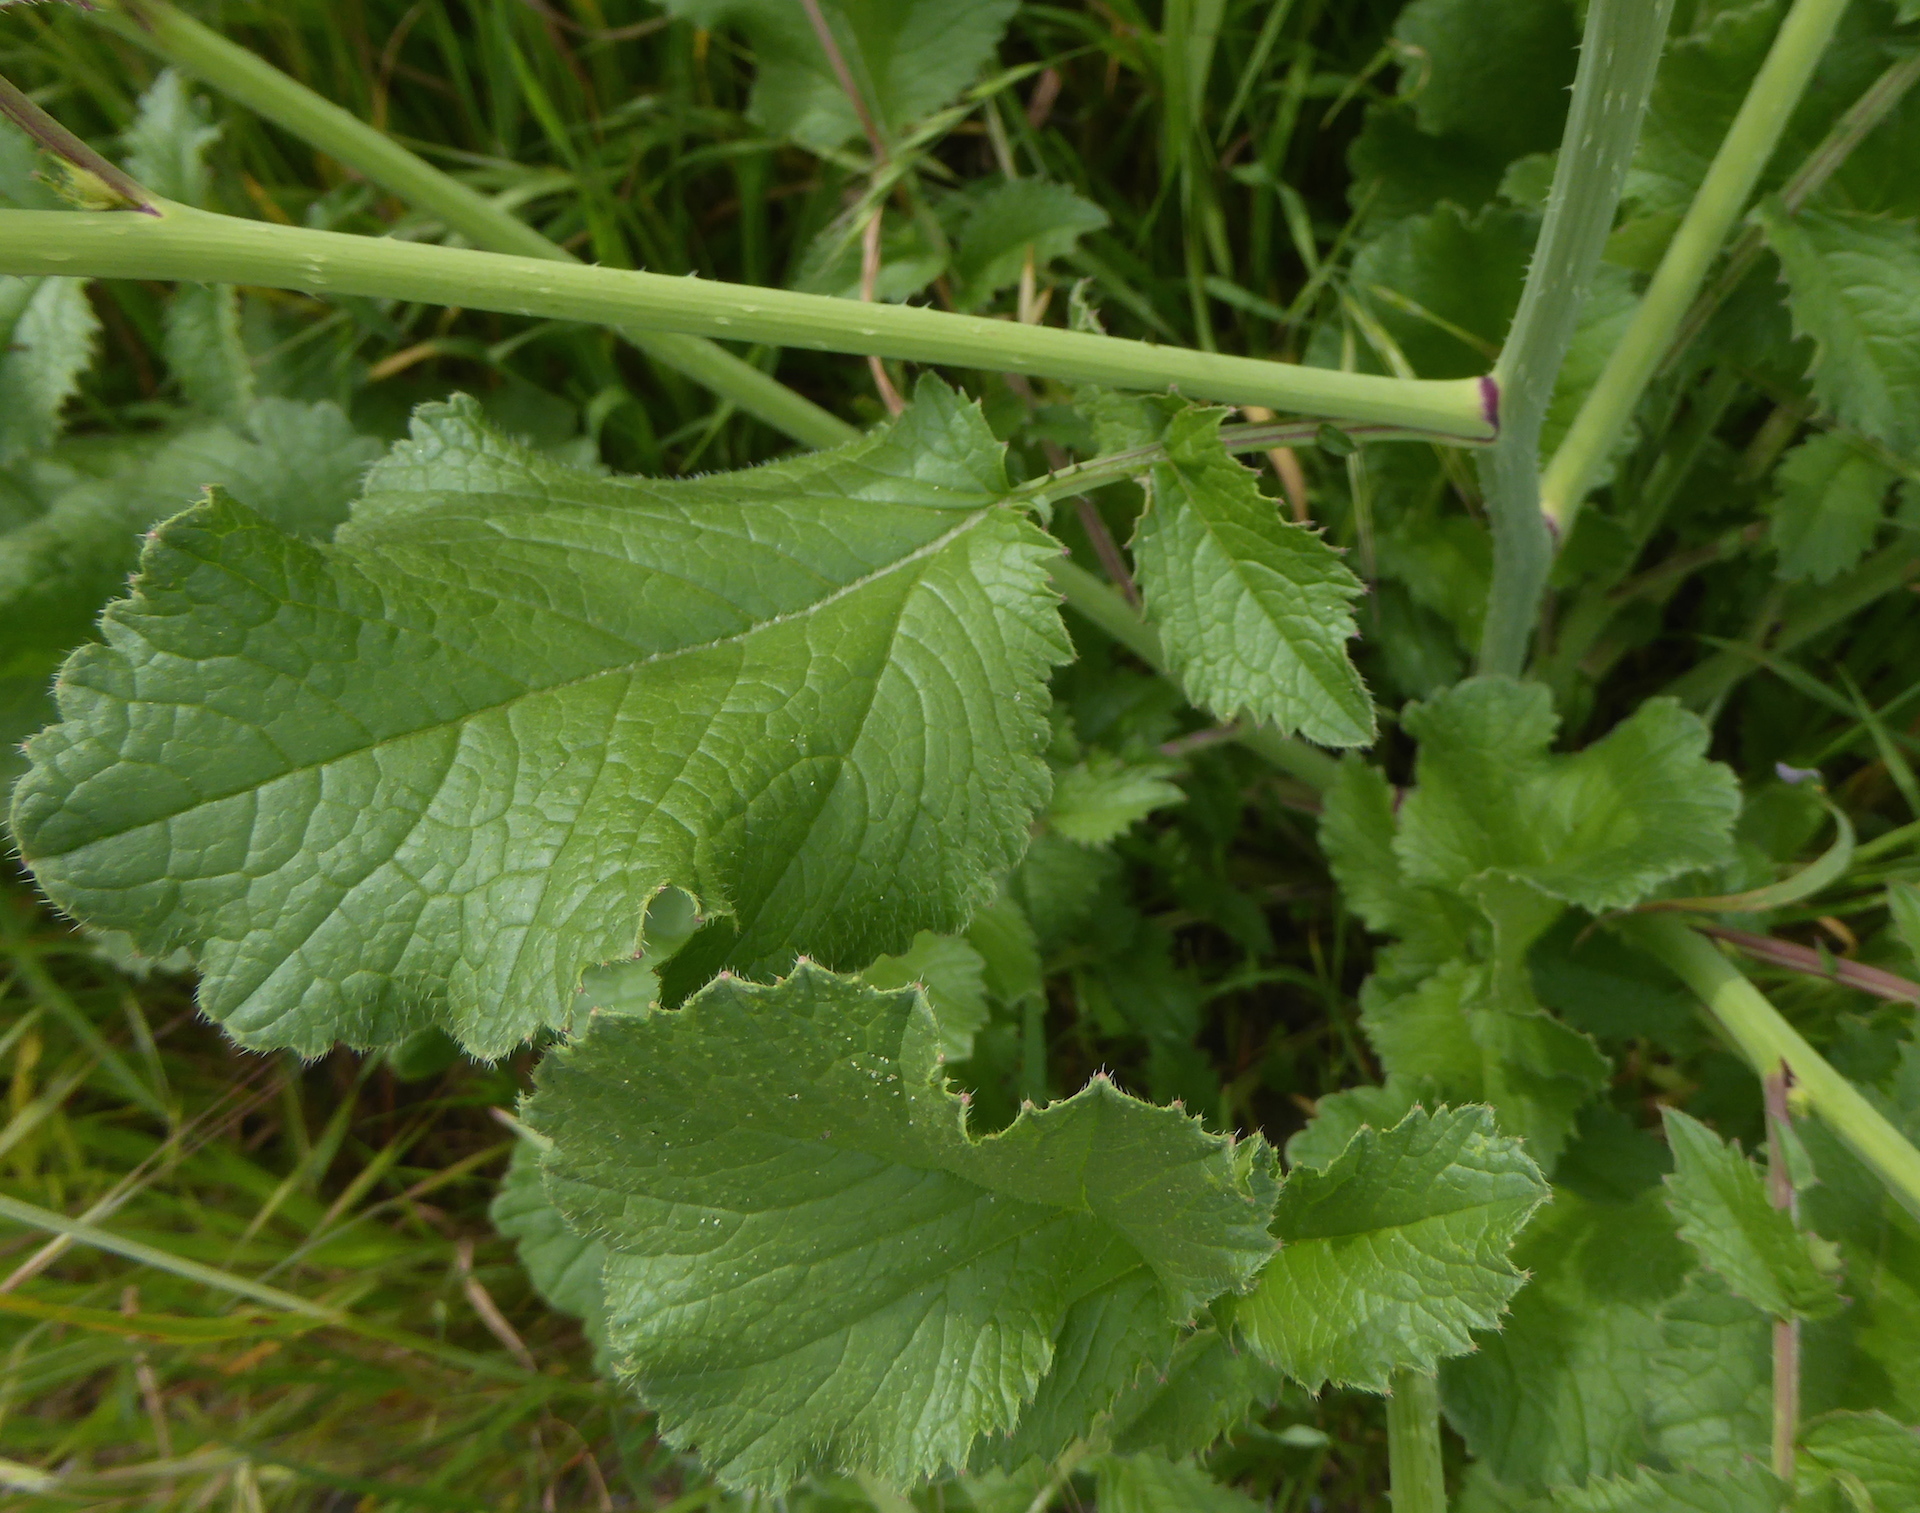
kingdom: Plantae
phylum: Tracheophyta
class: Magnoliopsida
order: Brassicales
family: Brassicaceae
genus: Raphanus
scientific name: Raphanus sativus
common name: Cultivated radish
